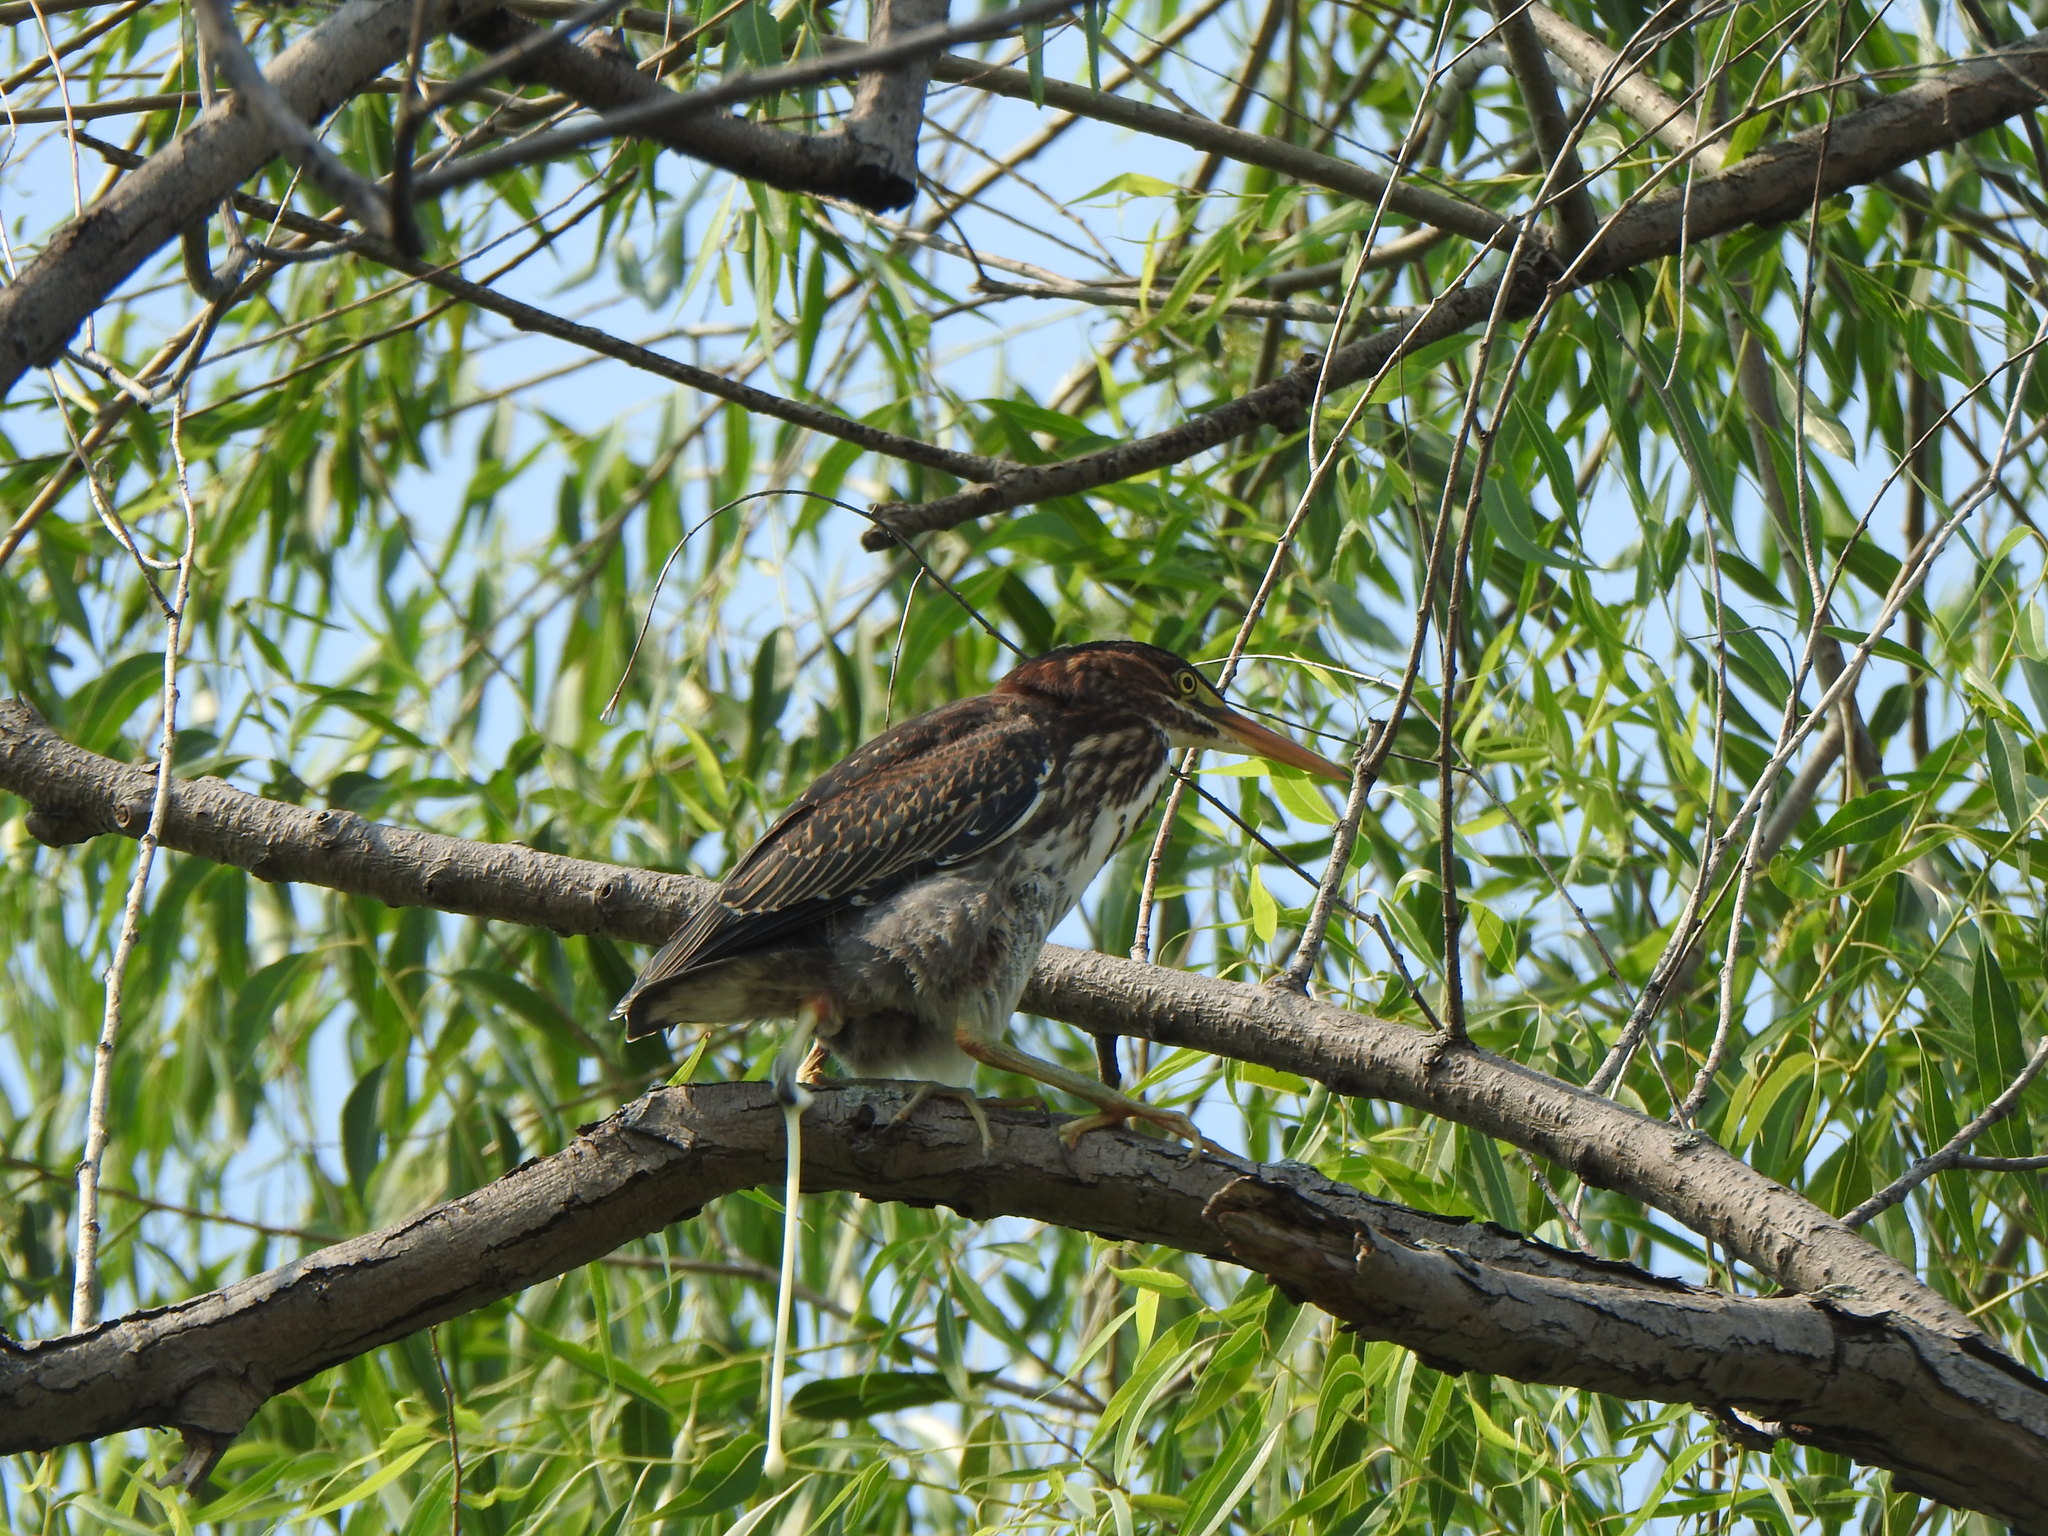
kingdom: Animalia
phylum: Chordata
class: Aves
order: Pelecaniformes
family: Ardeidae
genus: Butorides
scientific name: Butorides virescens
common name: Green heron
